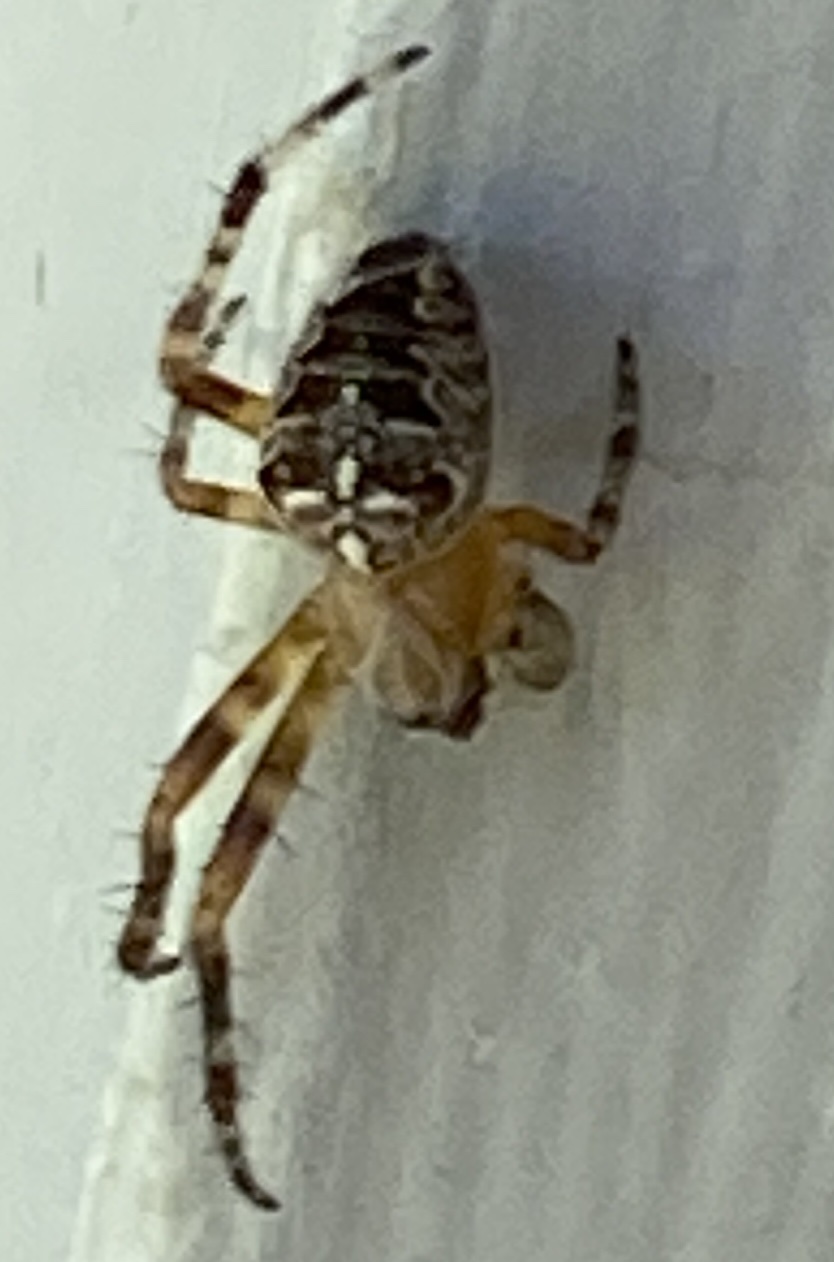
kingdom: Animalia
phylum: Arthropoda
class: Arachnida
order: Araneae
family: Araneidae
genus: Araneus
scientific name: Araneus diadematus
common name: Cross orbweaver
